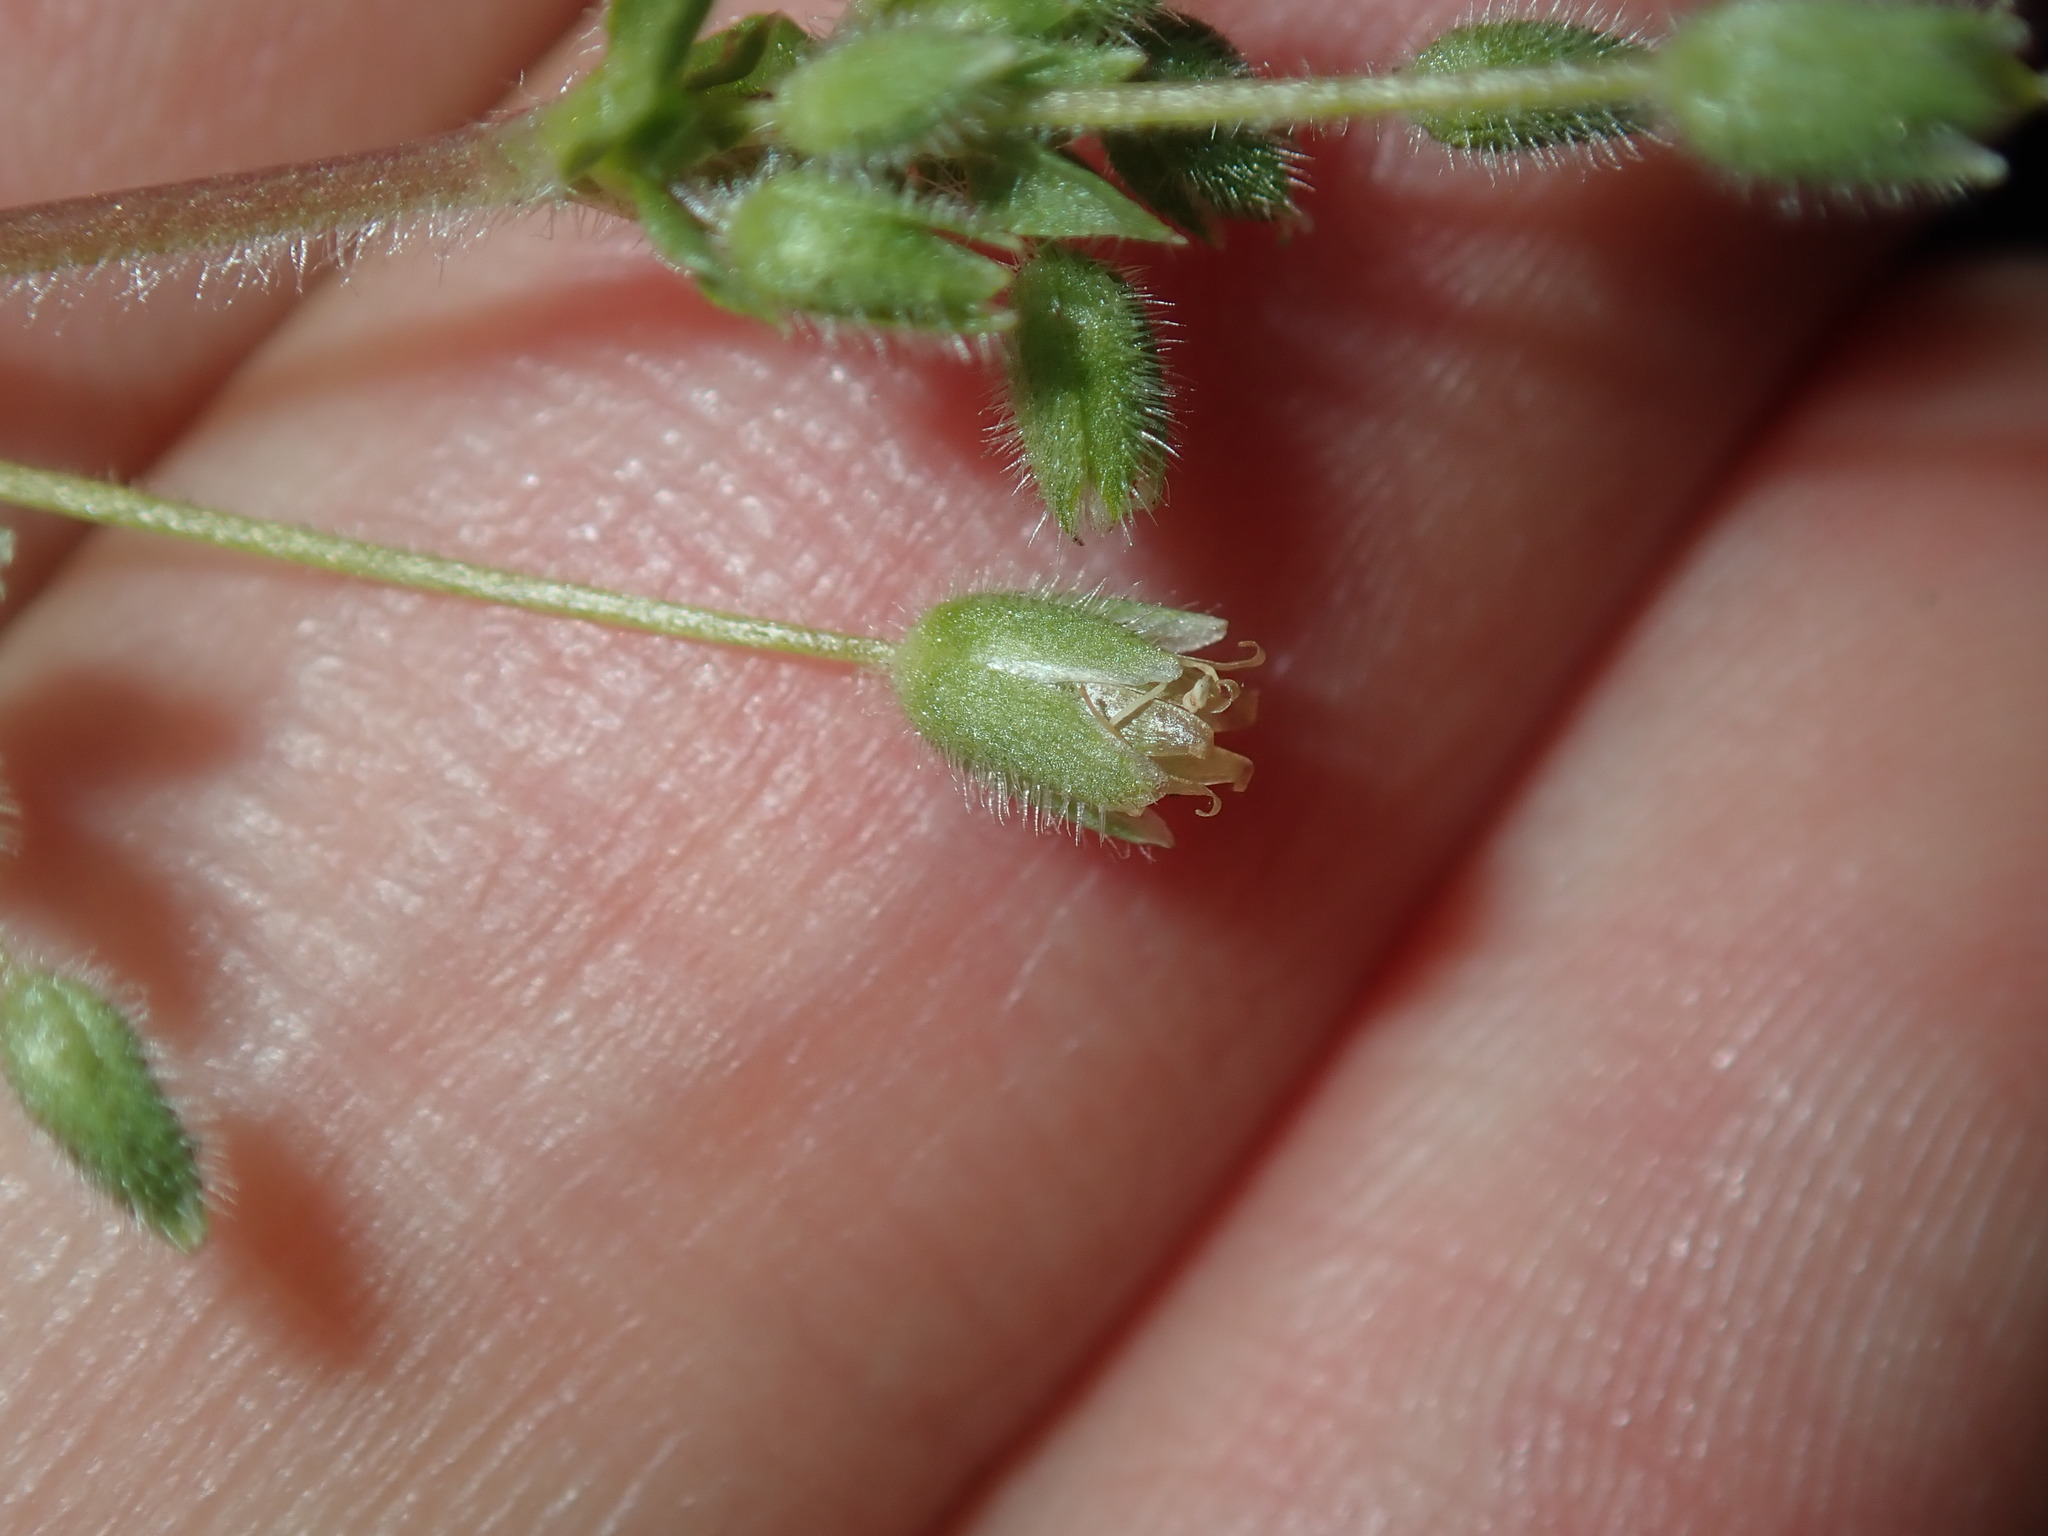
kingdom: Plantae
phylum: Tracheophyta
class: Magnoliopsida
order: Caryophyllales
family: Caryophyllaceae
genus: Stellaria
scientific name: Stellaria media
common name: Common chickweed
